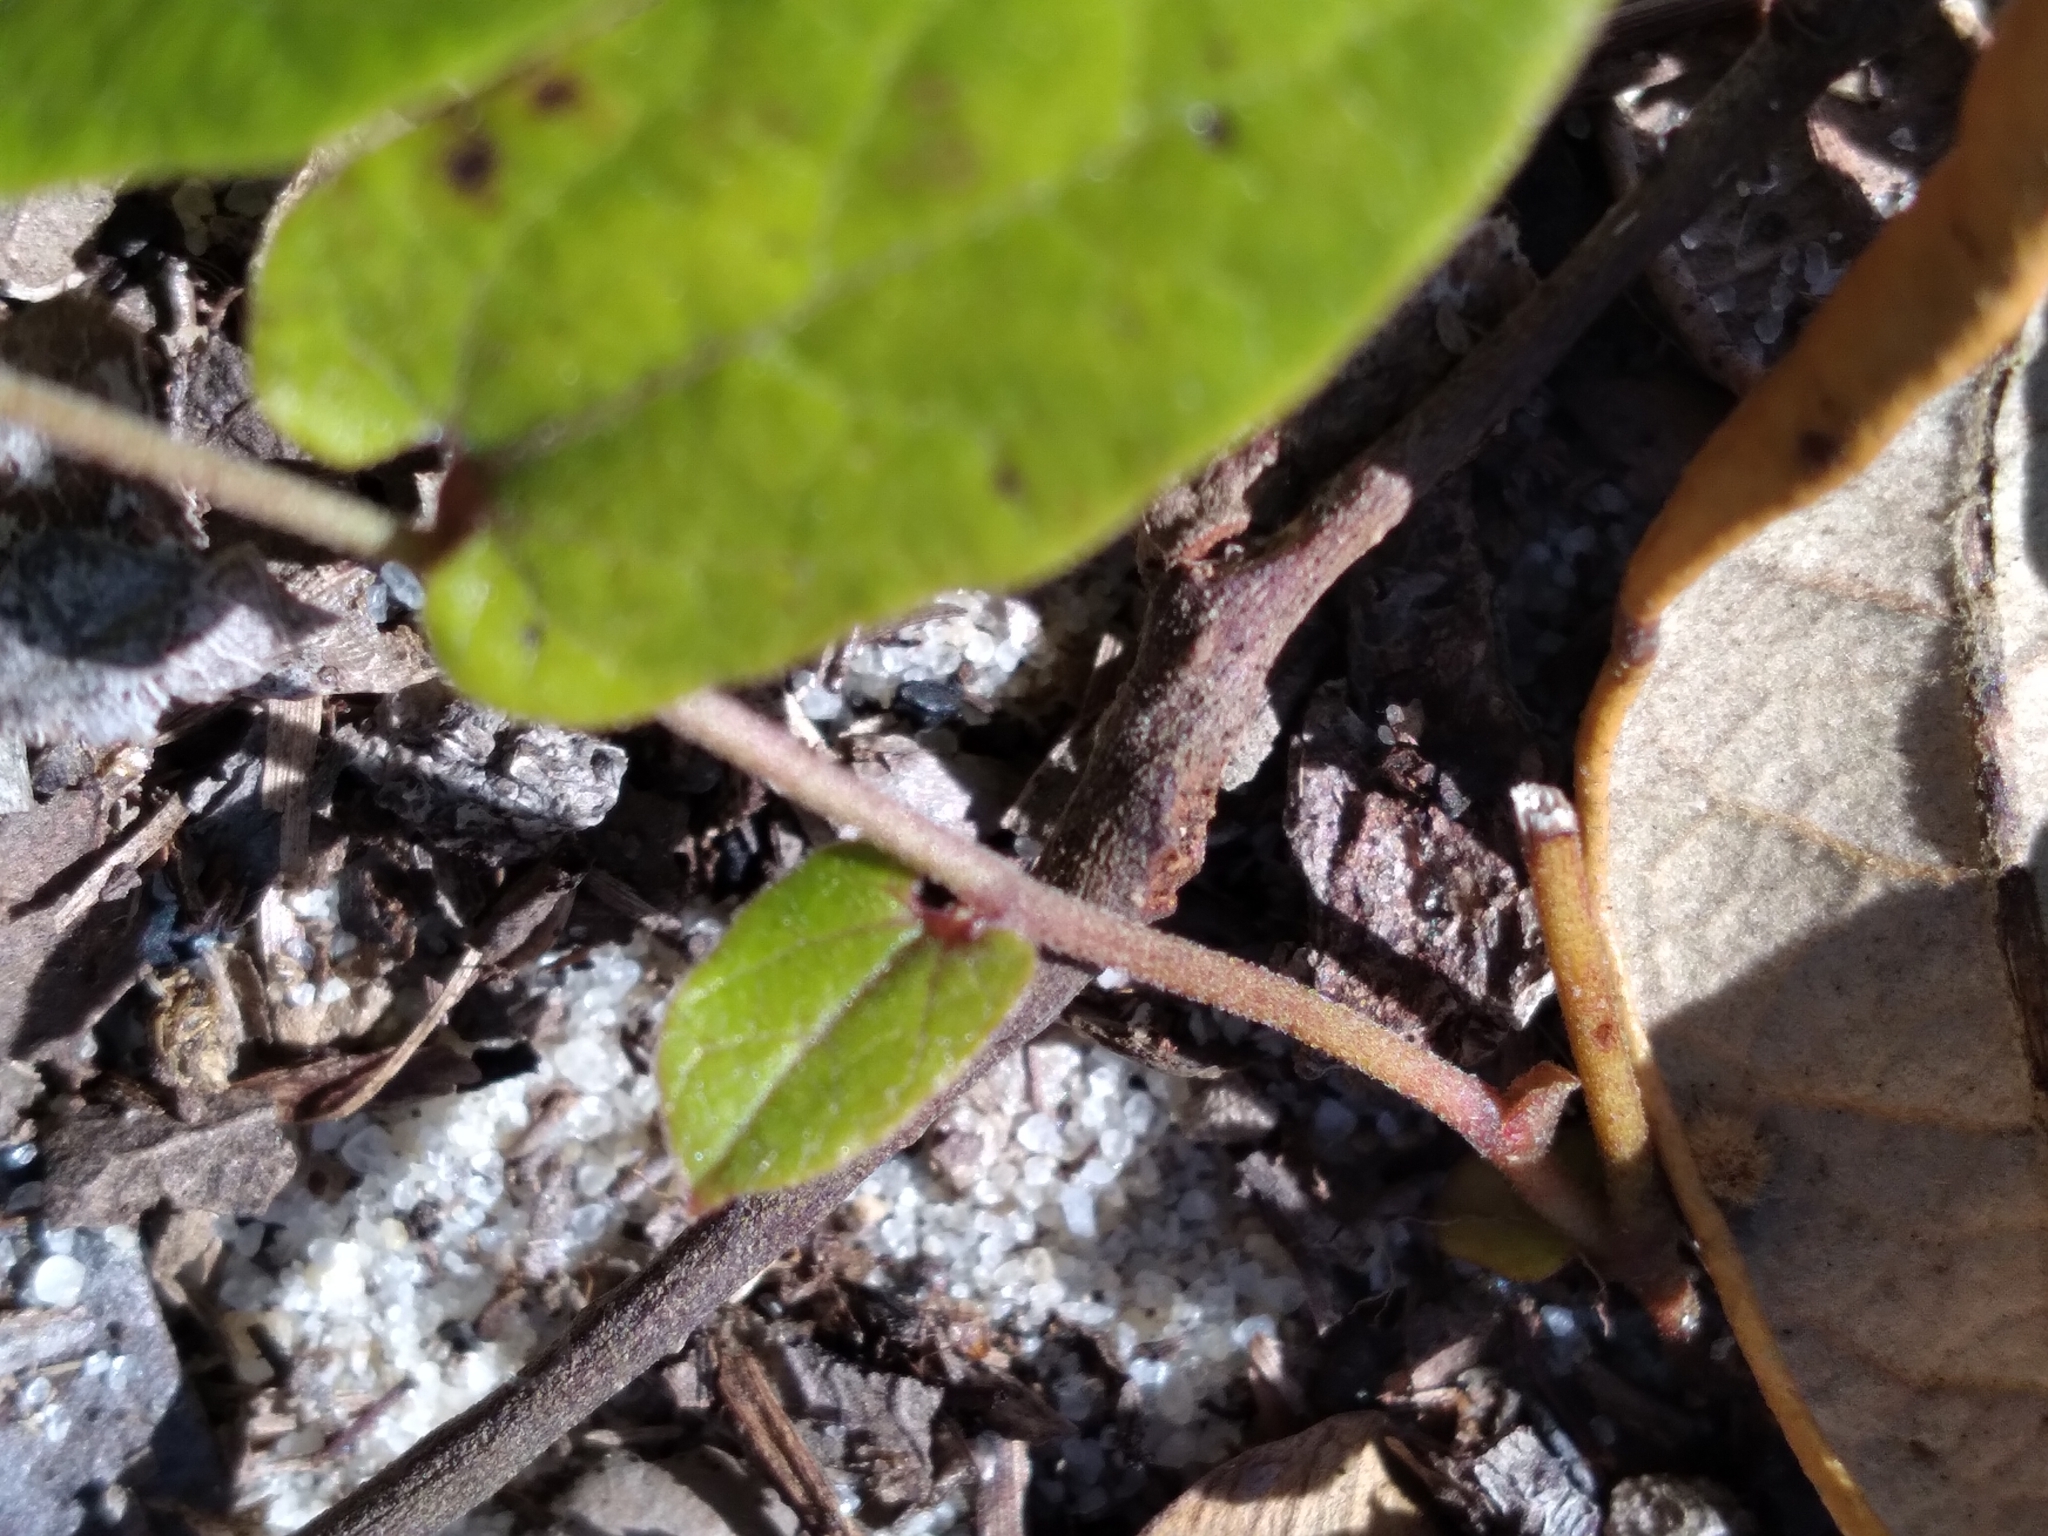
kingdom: Plantae
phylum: Tracheophyta
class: Magnoliopsida
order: Piperales
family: Aristolochiaceae
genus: Endodeca
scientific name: Endodeca serpentaria
